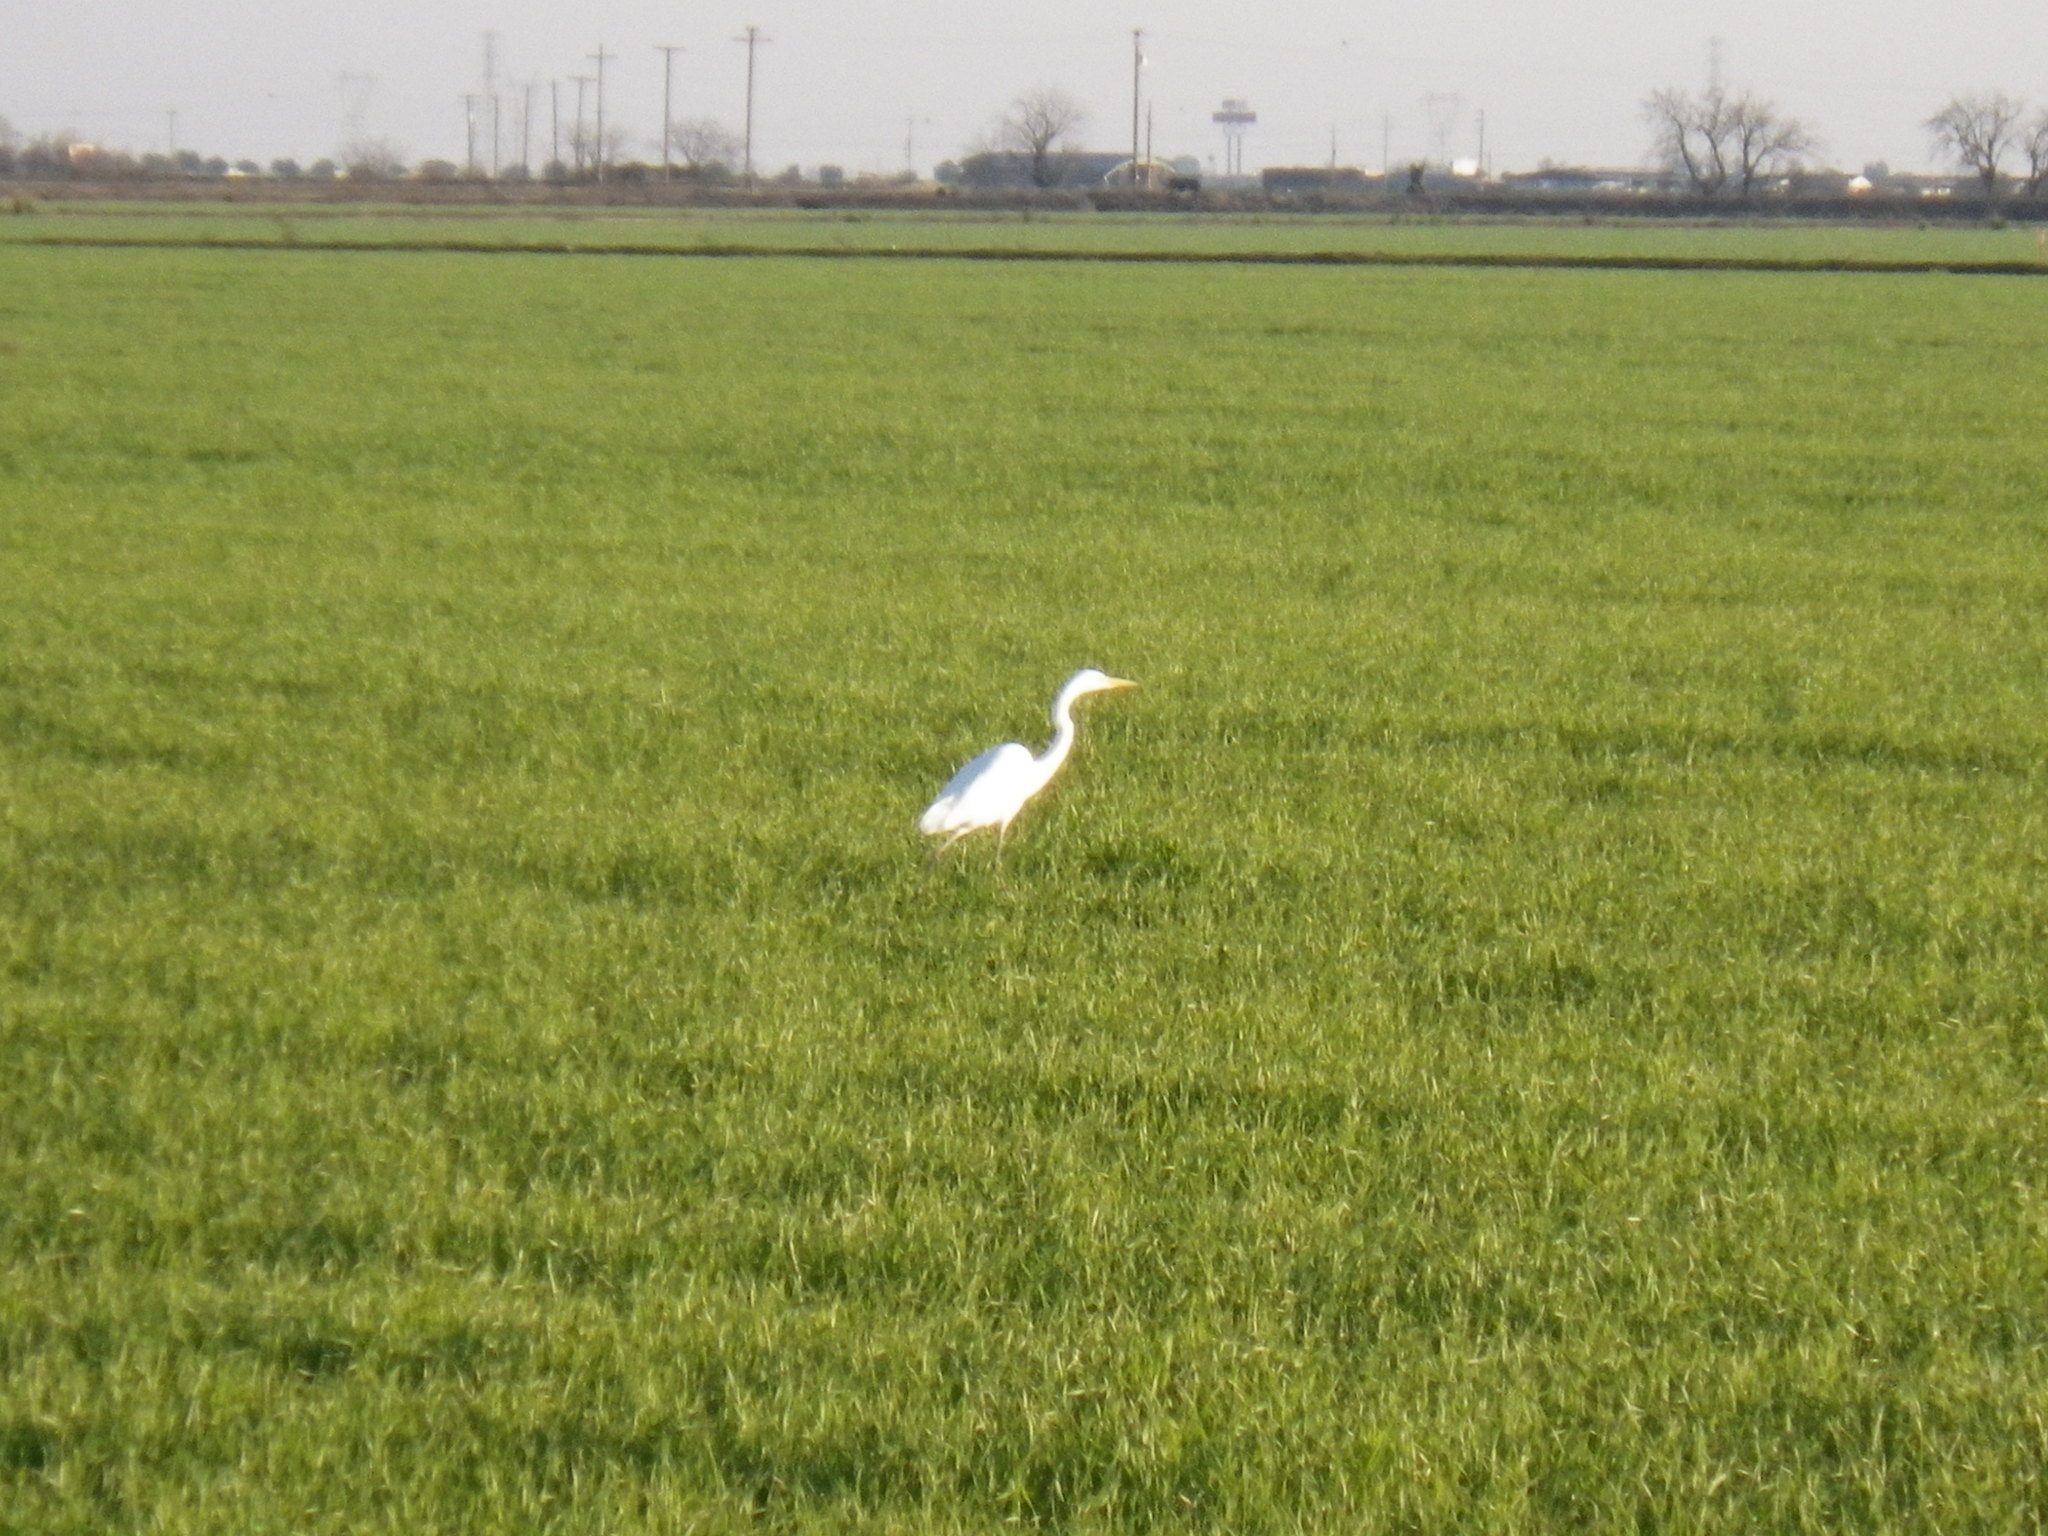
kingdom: Animalia
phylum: Chordata
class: Aves
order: Pelecaniformes
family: Ardeidae
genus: Ardea
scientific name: Ardea alba
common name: Great egret
